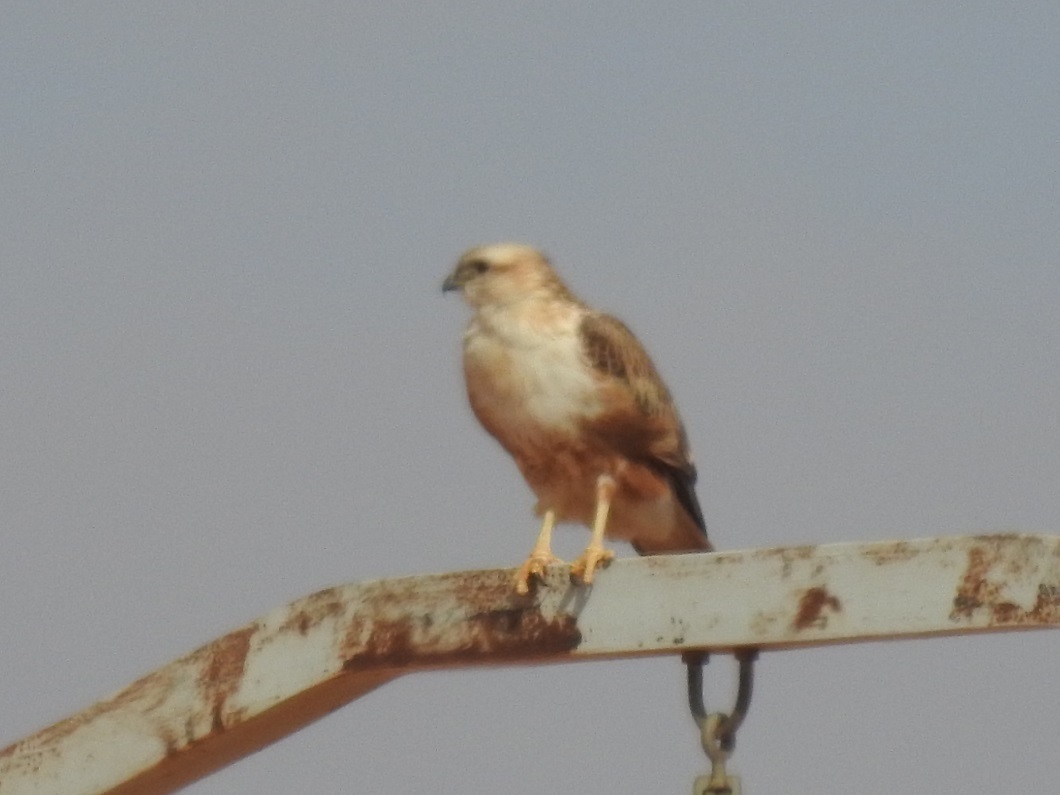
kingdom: Animalia
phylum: Chordata
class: Aves
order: Accipitriformes
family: Accipitridae
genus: Buteo
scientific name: Buteo rufinus
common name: Long-legged buzzard
